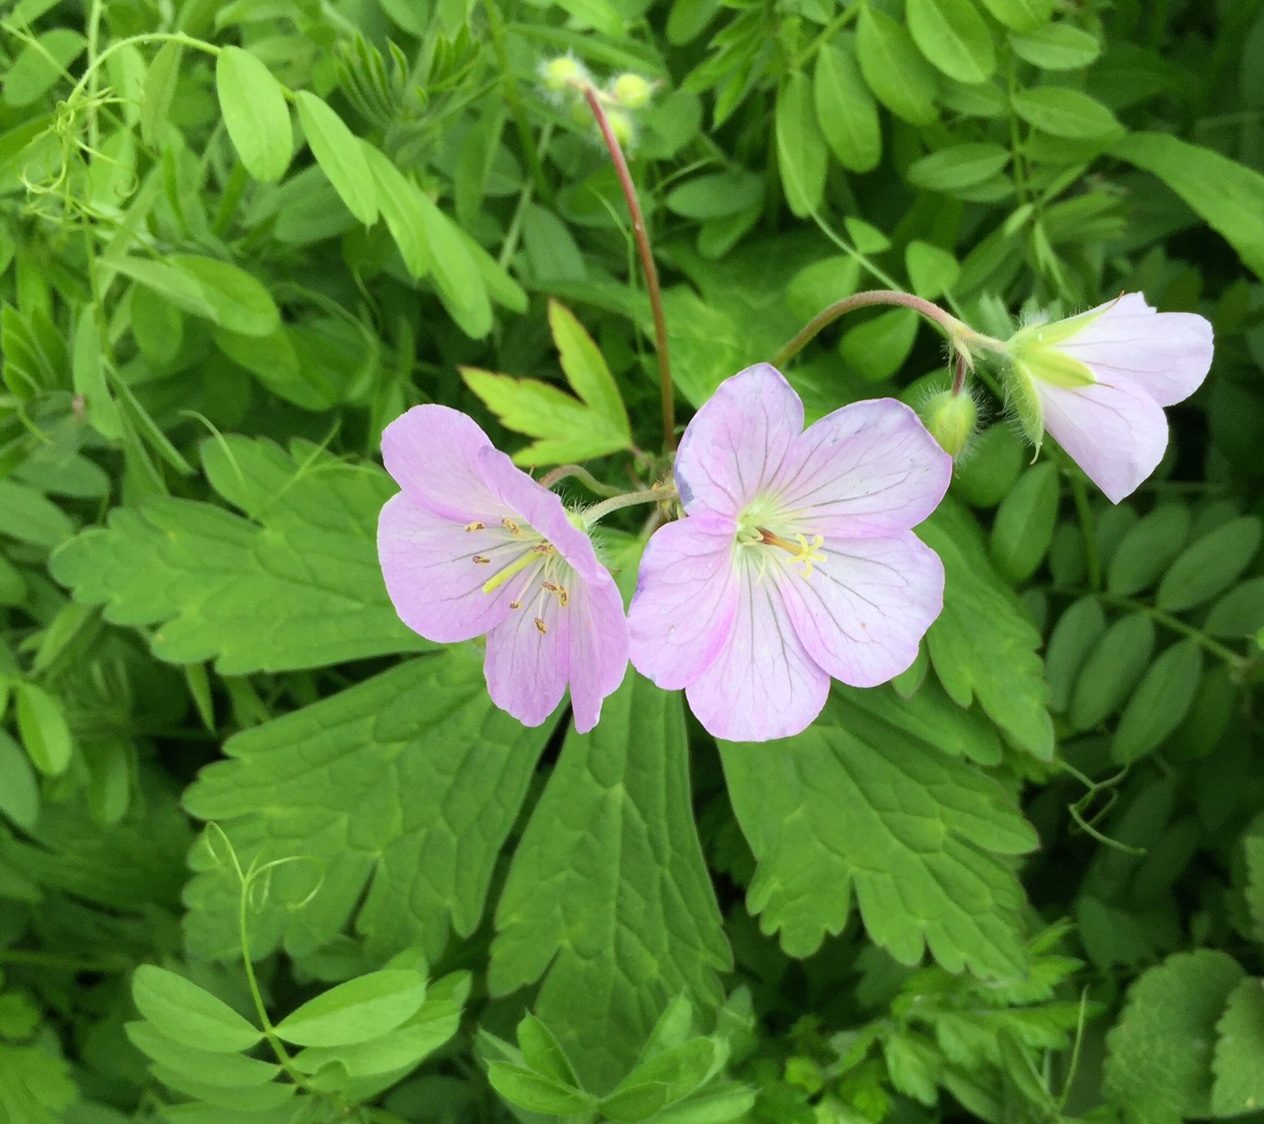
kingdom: Plantae
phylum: Tracheophyta
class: Magnoliopsida
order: Geraniales
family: Geraniaceae
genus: Geranium
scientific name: Geranium maculatum
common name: Spotted geranium
